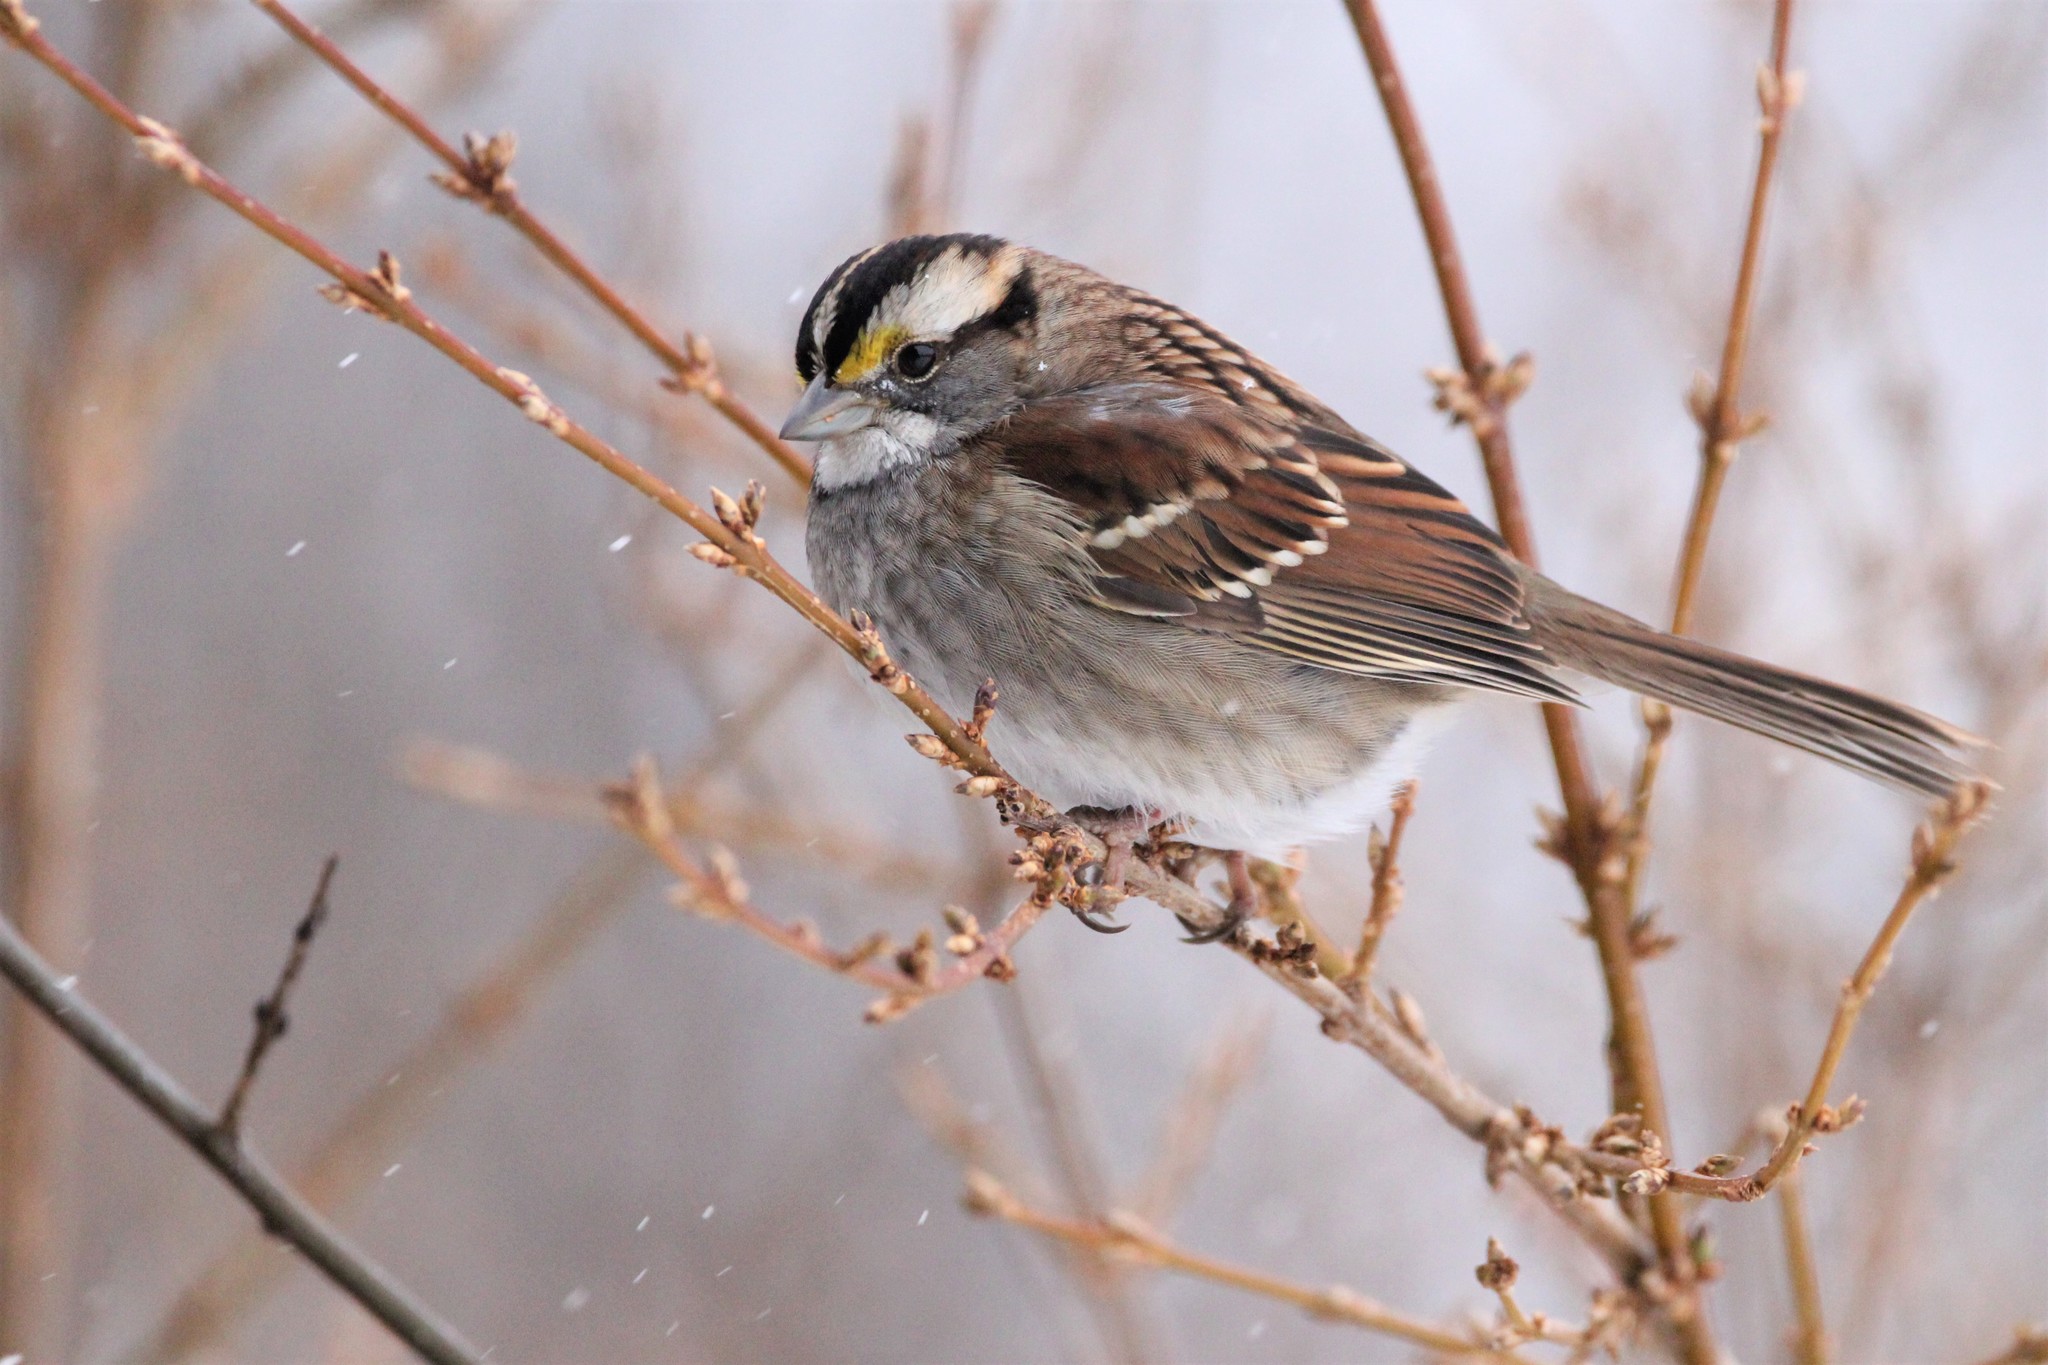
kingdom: Animalia
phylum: Chordata
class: Aves
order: Passeriformes
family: Passerellidae
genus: Zonotrichia
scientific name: Zonotrichia albicollis
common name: White-throated sparrow
